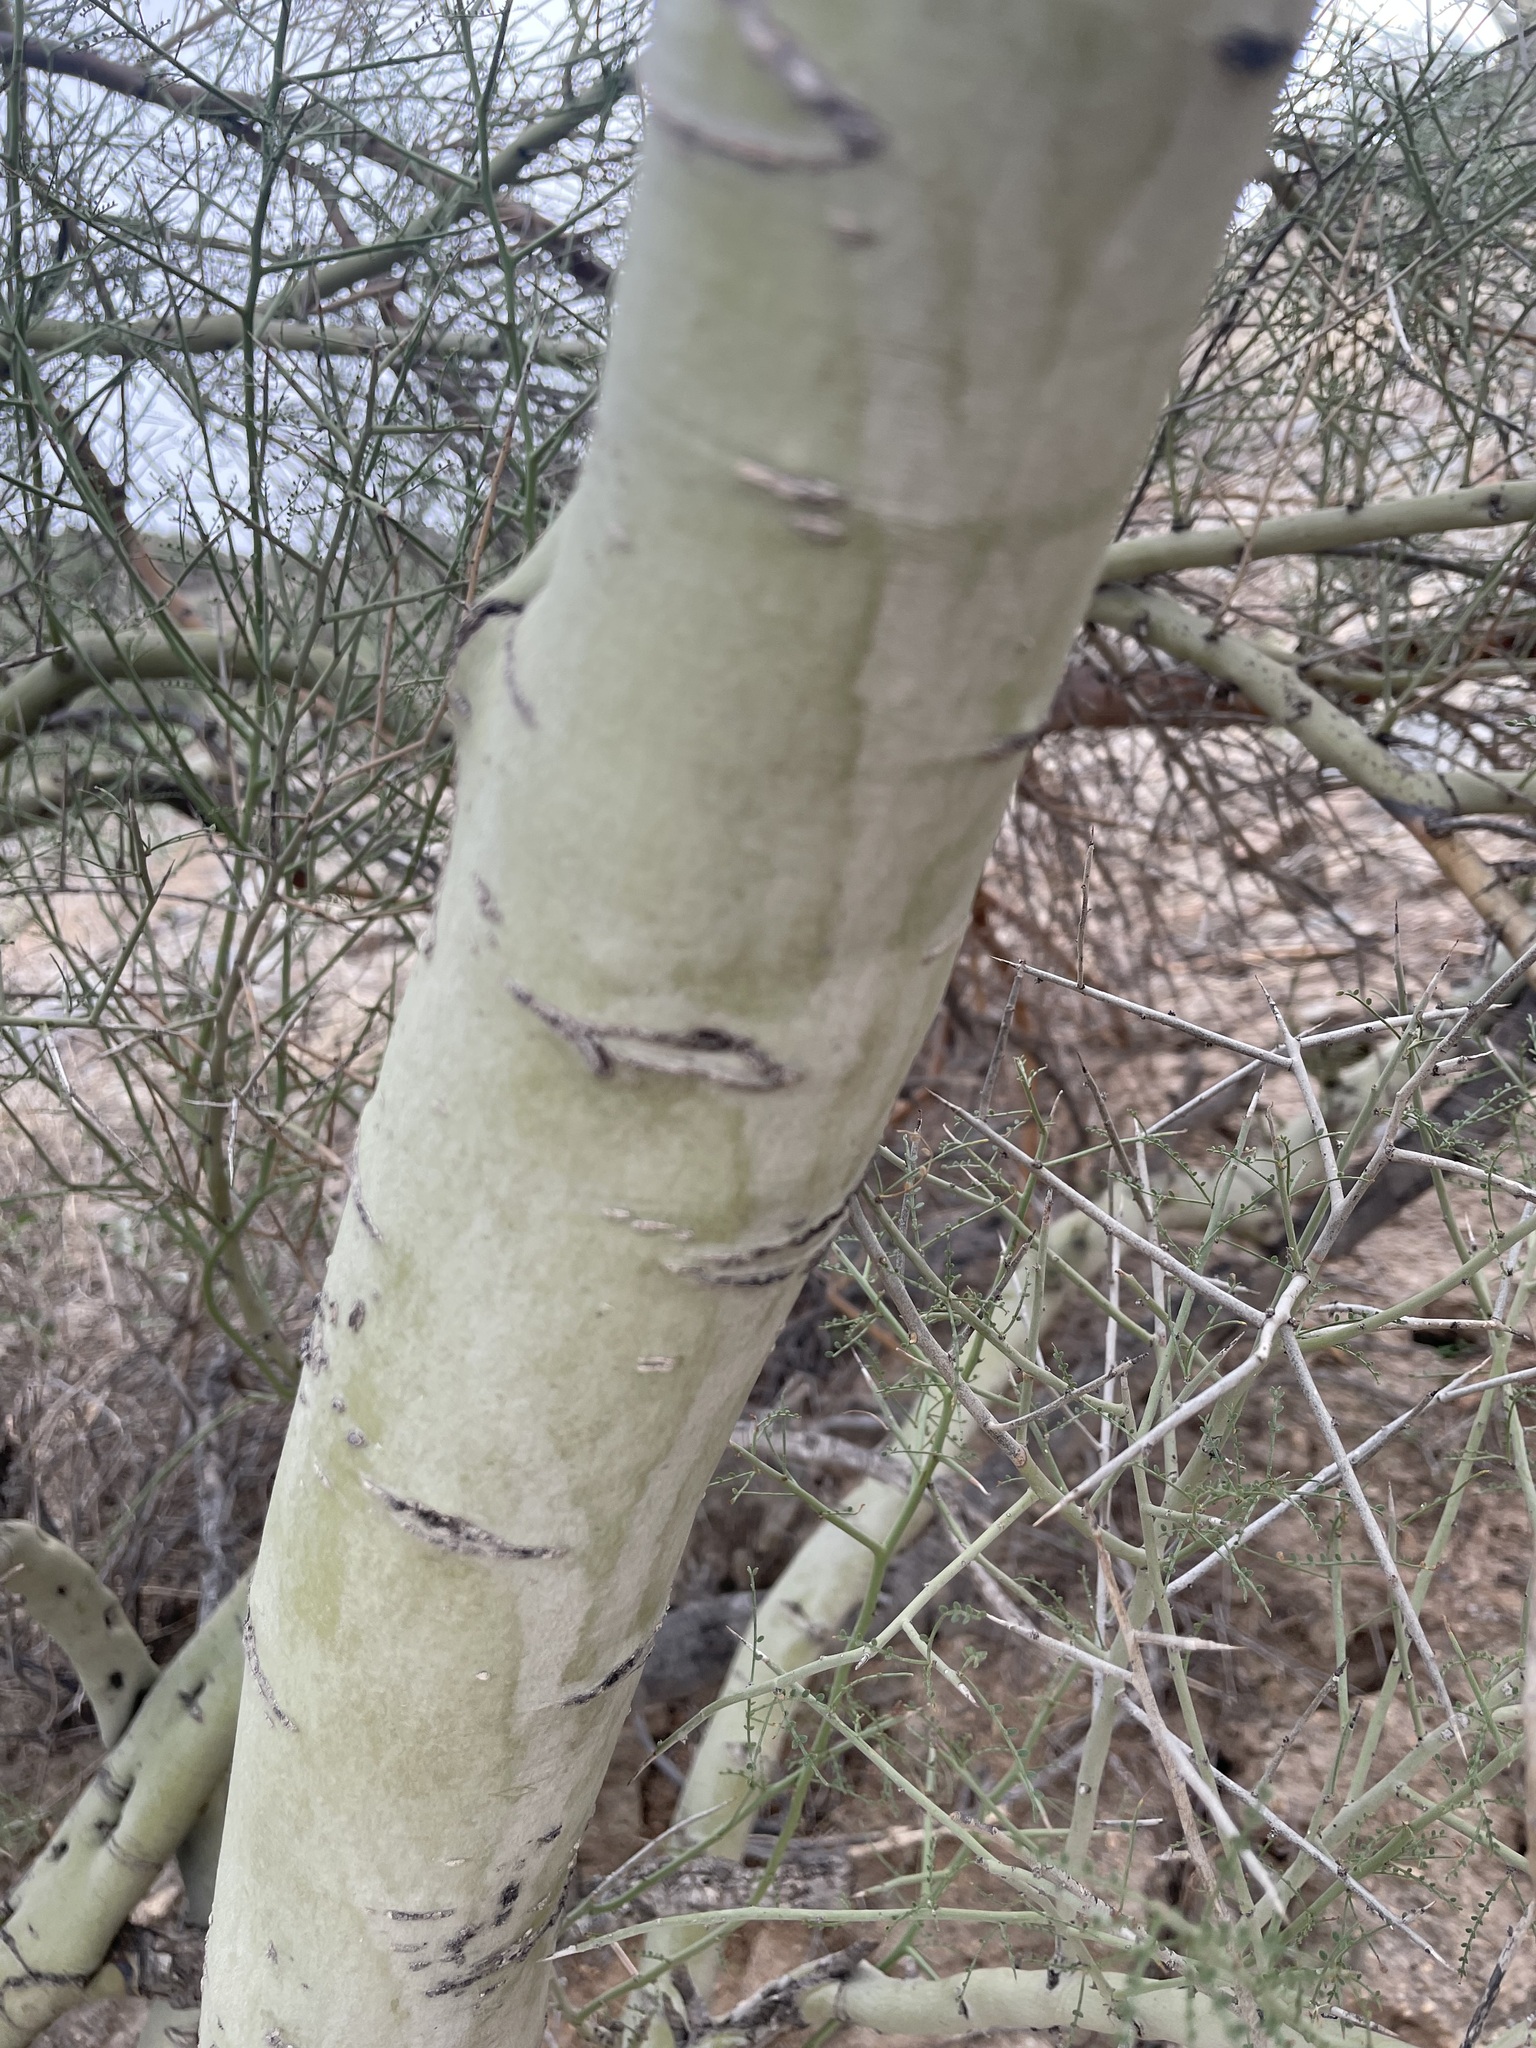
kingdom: Plantae
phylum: Tracheophyta
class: Magnoliopsida
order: Fabales
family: Fabaceae
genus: Parkinsonia
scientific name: Parkinsonia microphylla
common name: Yellow paloverde
